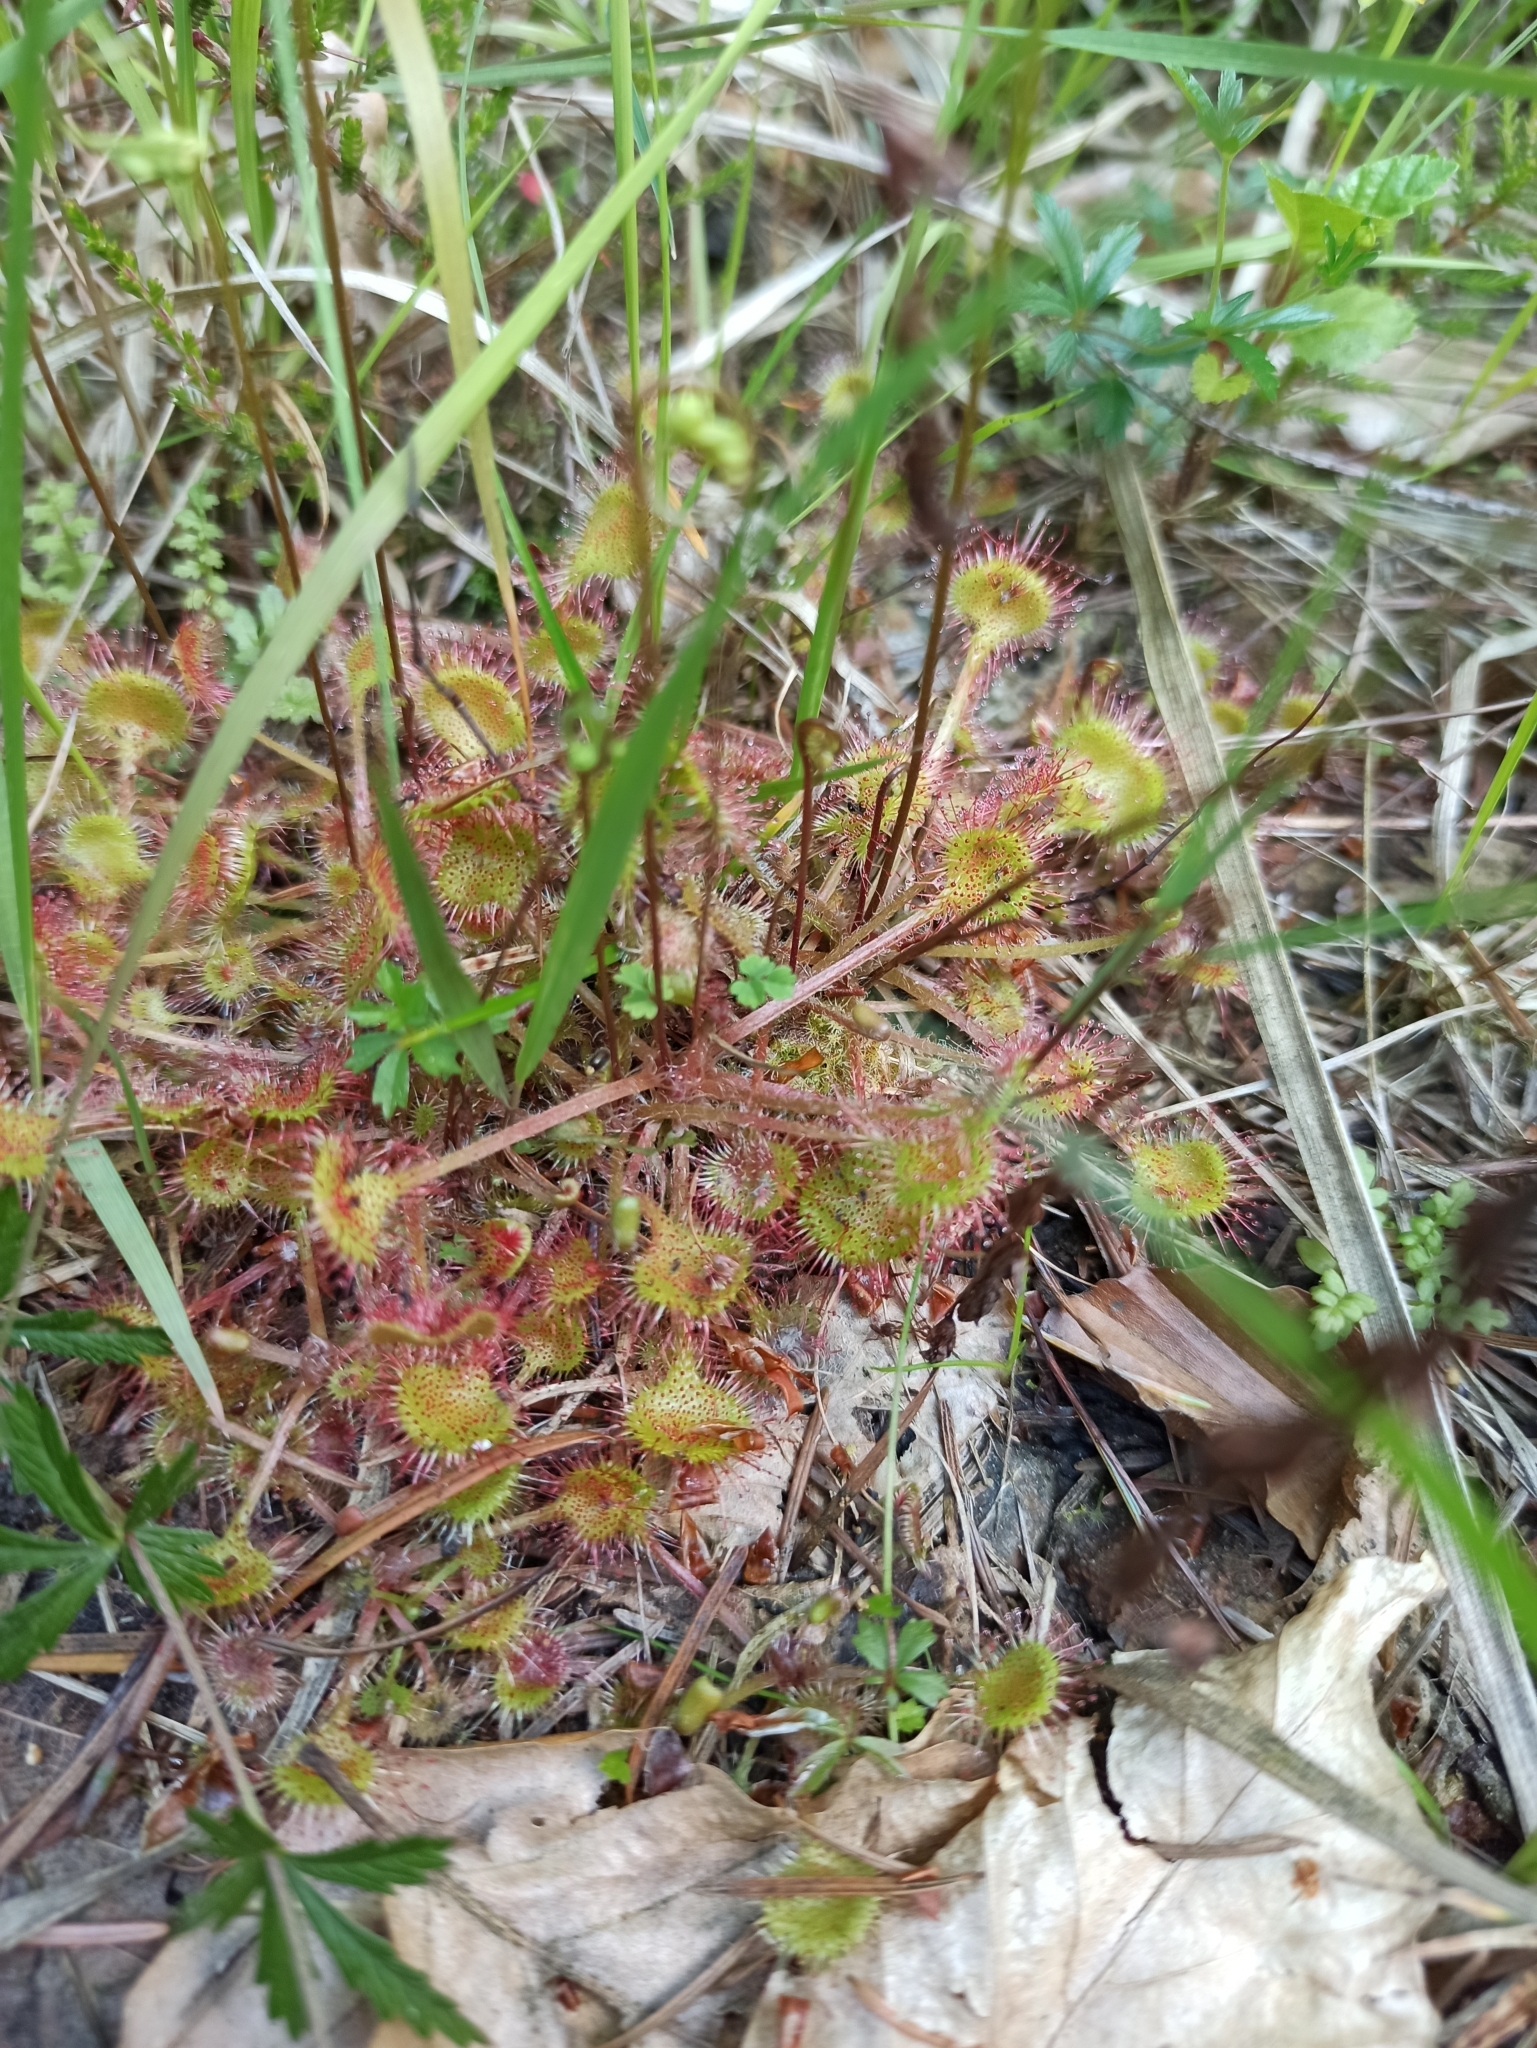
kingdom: Plantae
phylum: Tracheophyta
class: Magnoliopsida
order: Caryophyllales
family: Droseraceae
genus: Drosera
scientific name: Drosera rotundifolia
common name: Round-leaved sundew
